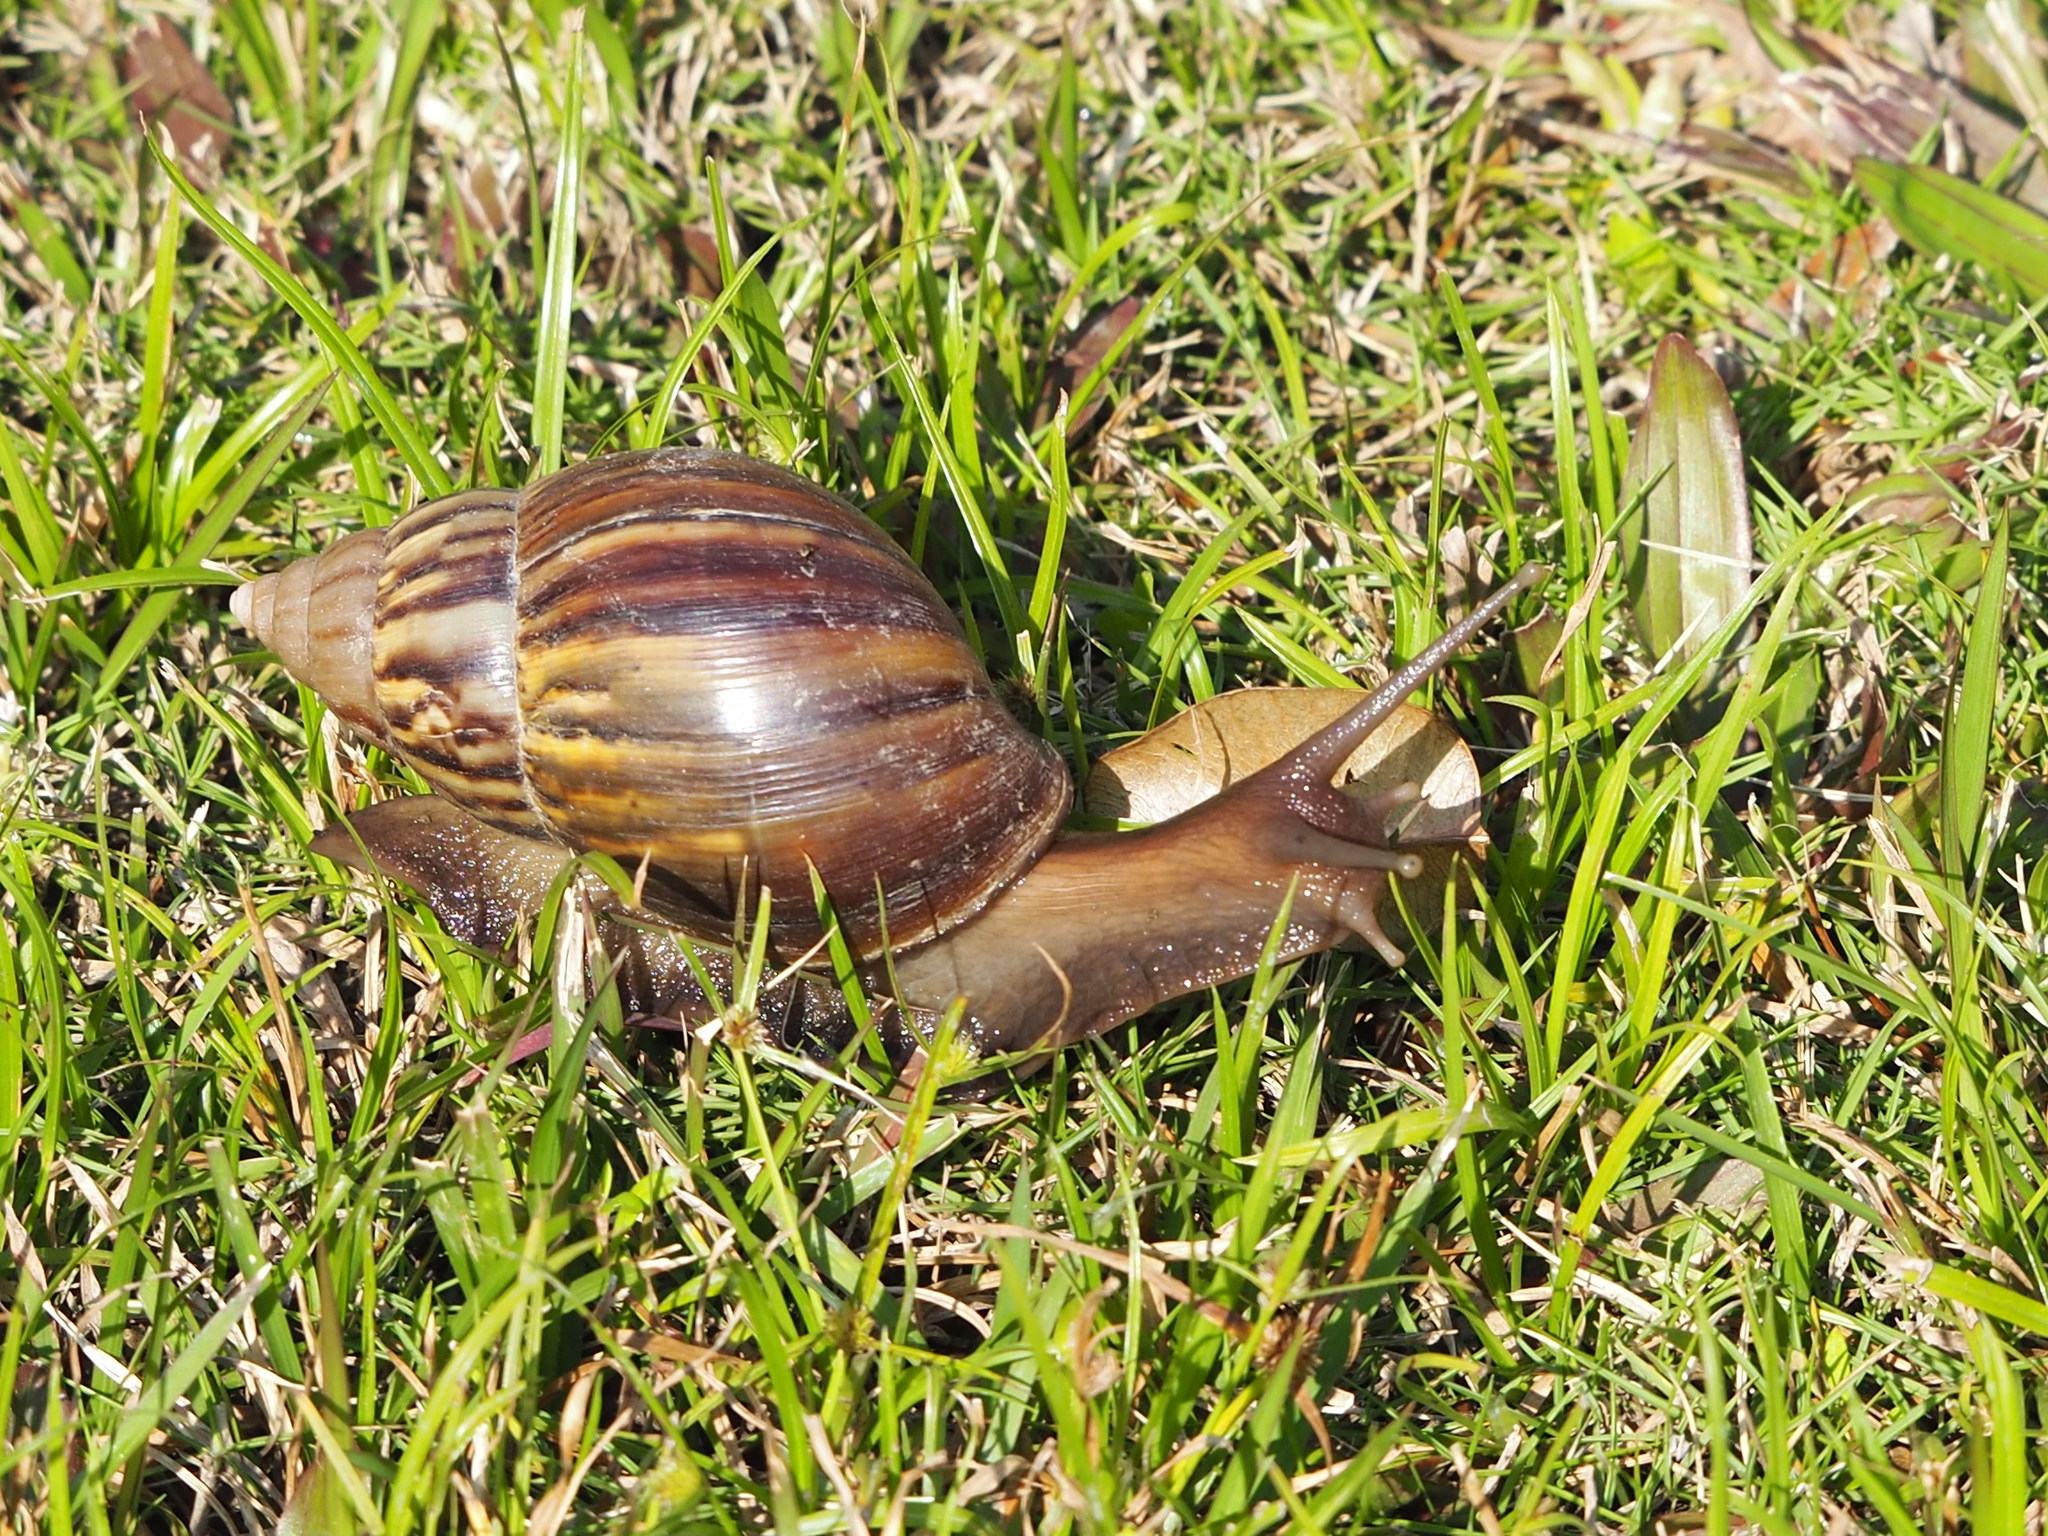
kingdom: Animalia
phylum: Mollusca
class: Gastropoda
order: Stylommatophora
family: Achatinidae
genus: Lissachatina
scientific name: Lissachatina fulica
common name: Giant african snail
